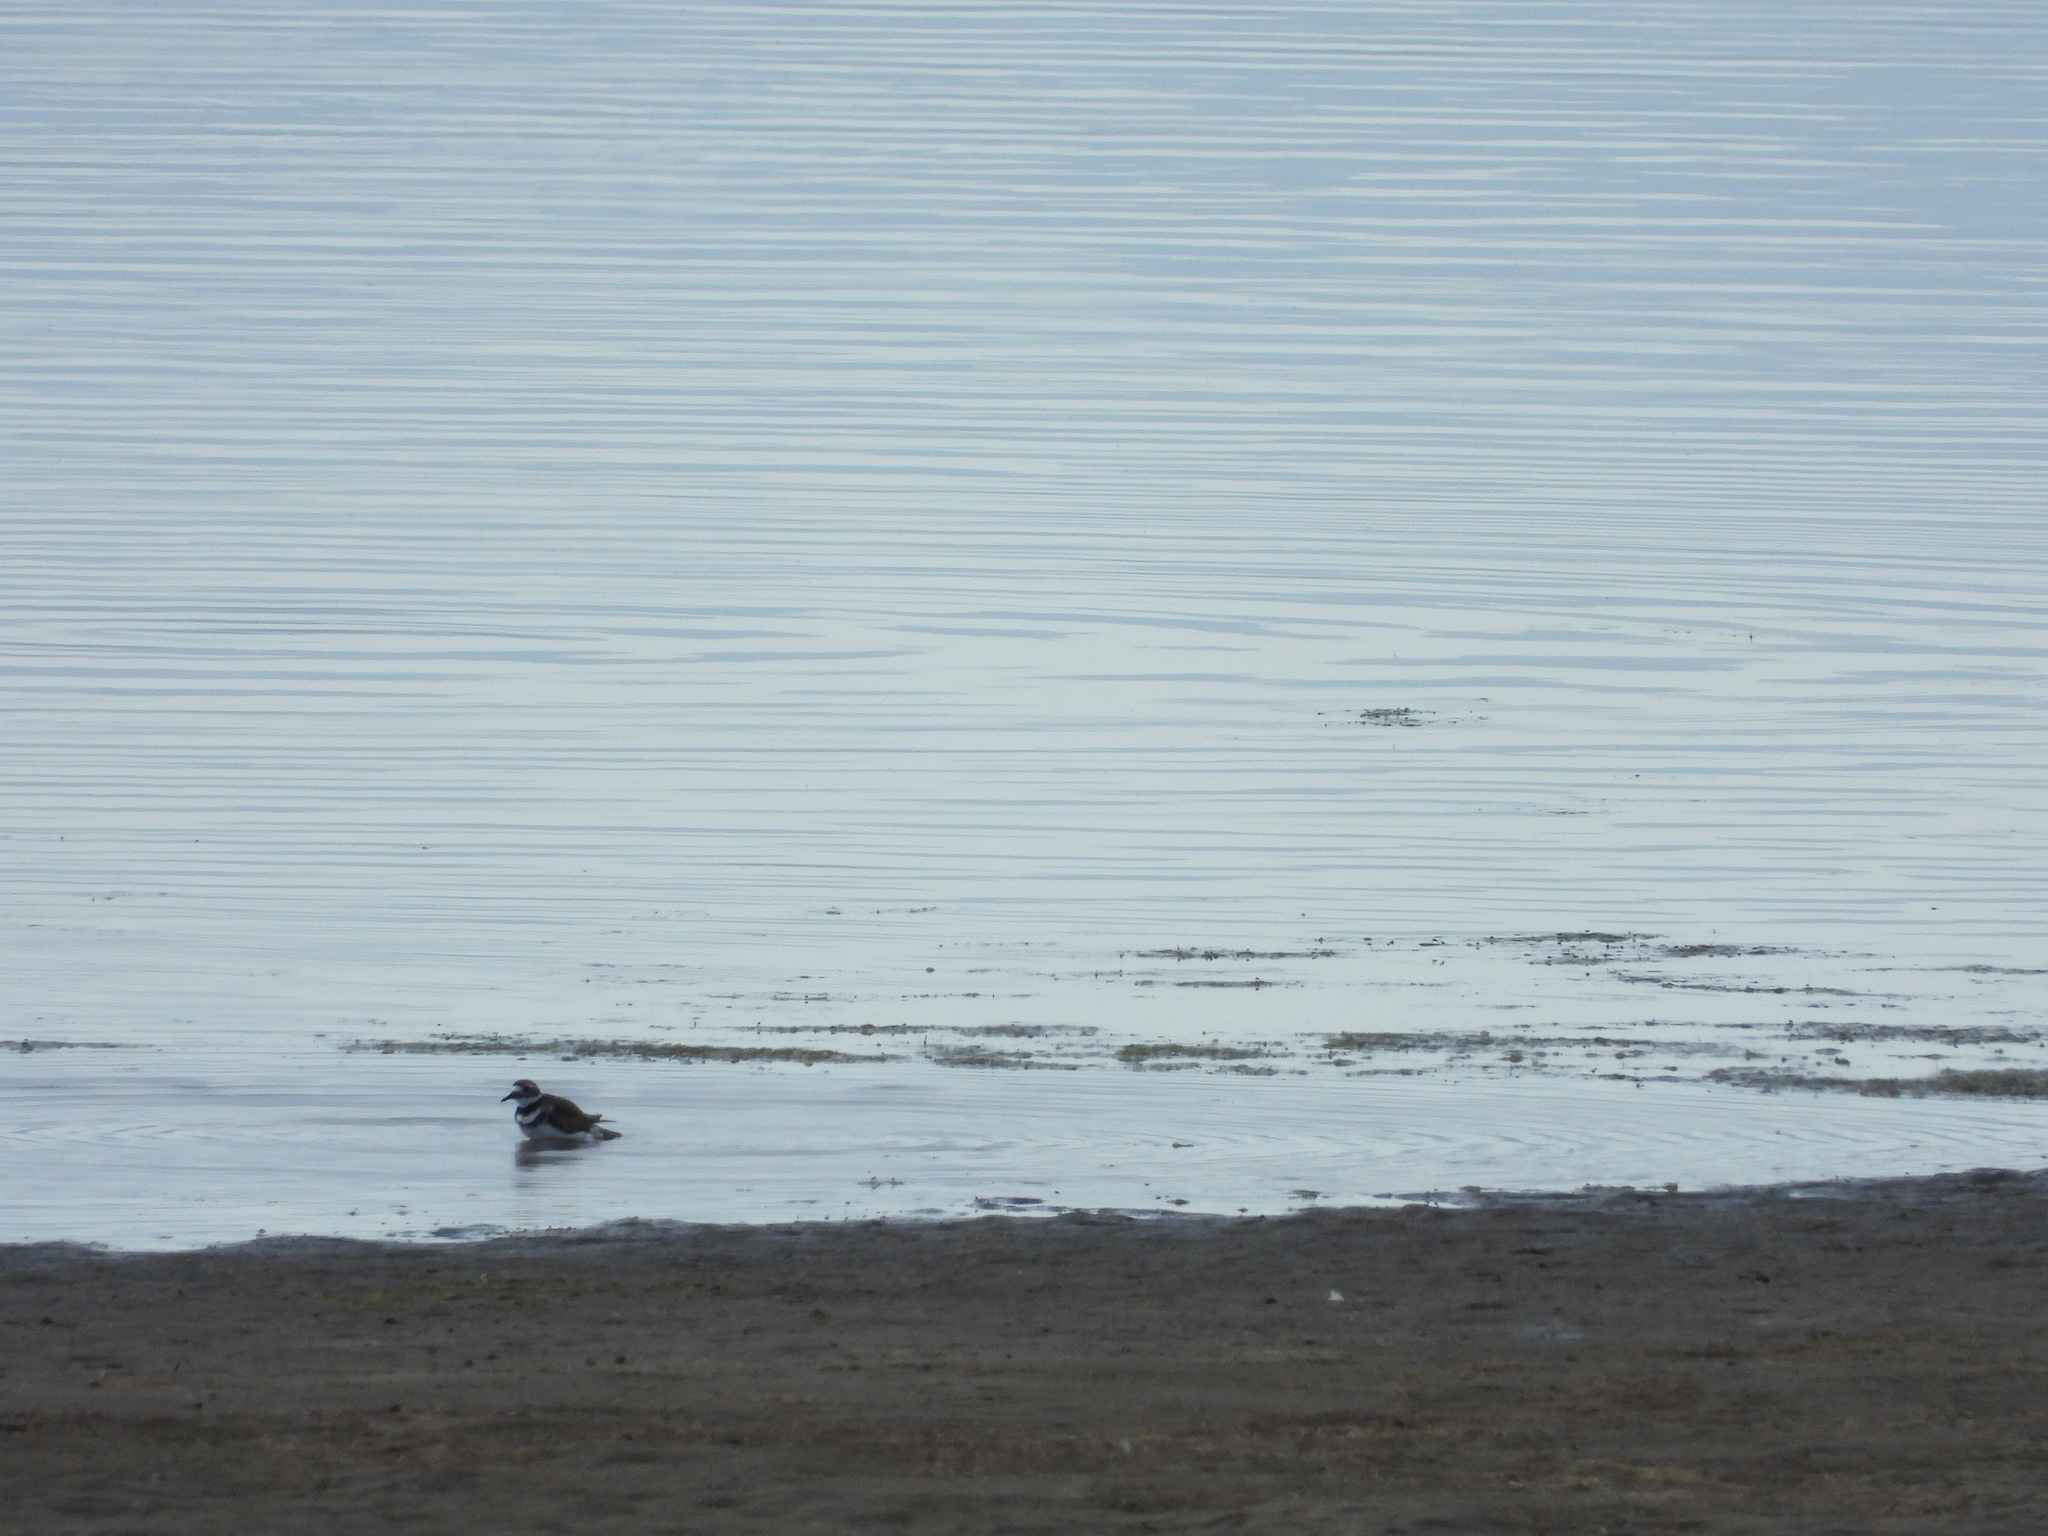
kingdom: Animalia
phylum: Chordata
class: Aves
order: Charadriiformes
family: Charadriidae
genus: Charadrius
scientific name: Charadrius vociferus
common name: Killdeer
